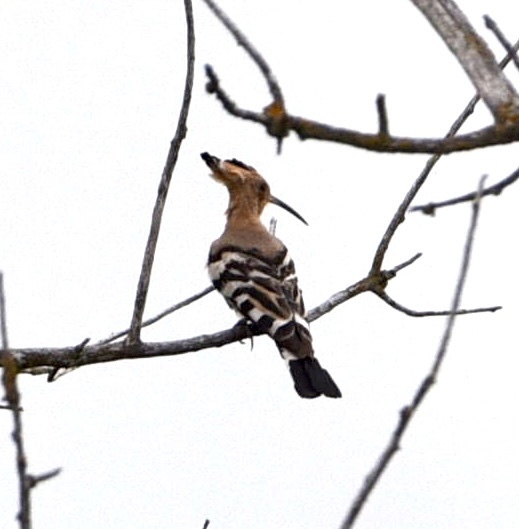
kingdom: Animalia
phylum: Chordata
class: Aves
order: Bucerotiformes
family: Upupidae
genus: Upupa
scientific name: Upupa epops
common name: Eurasian hoopoe
